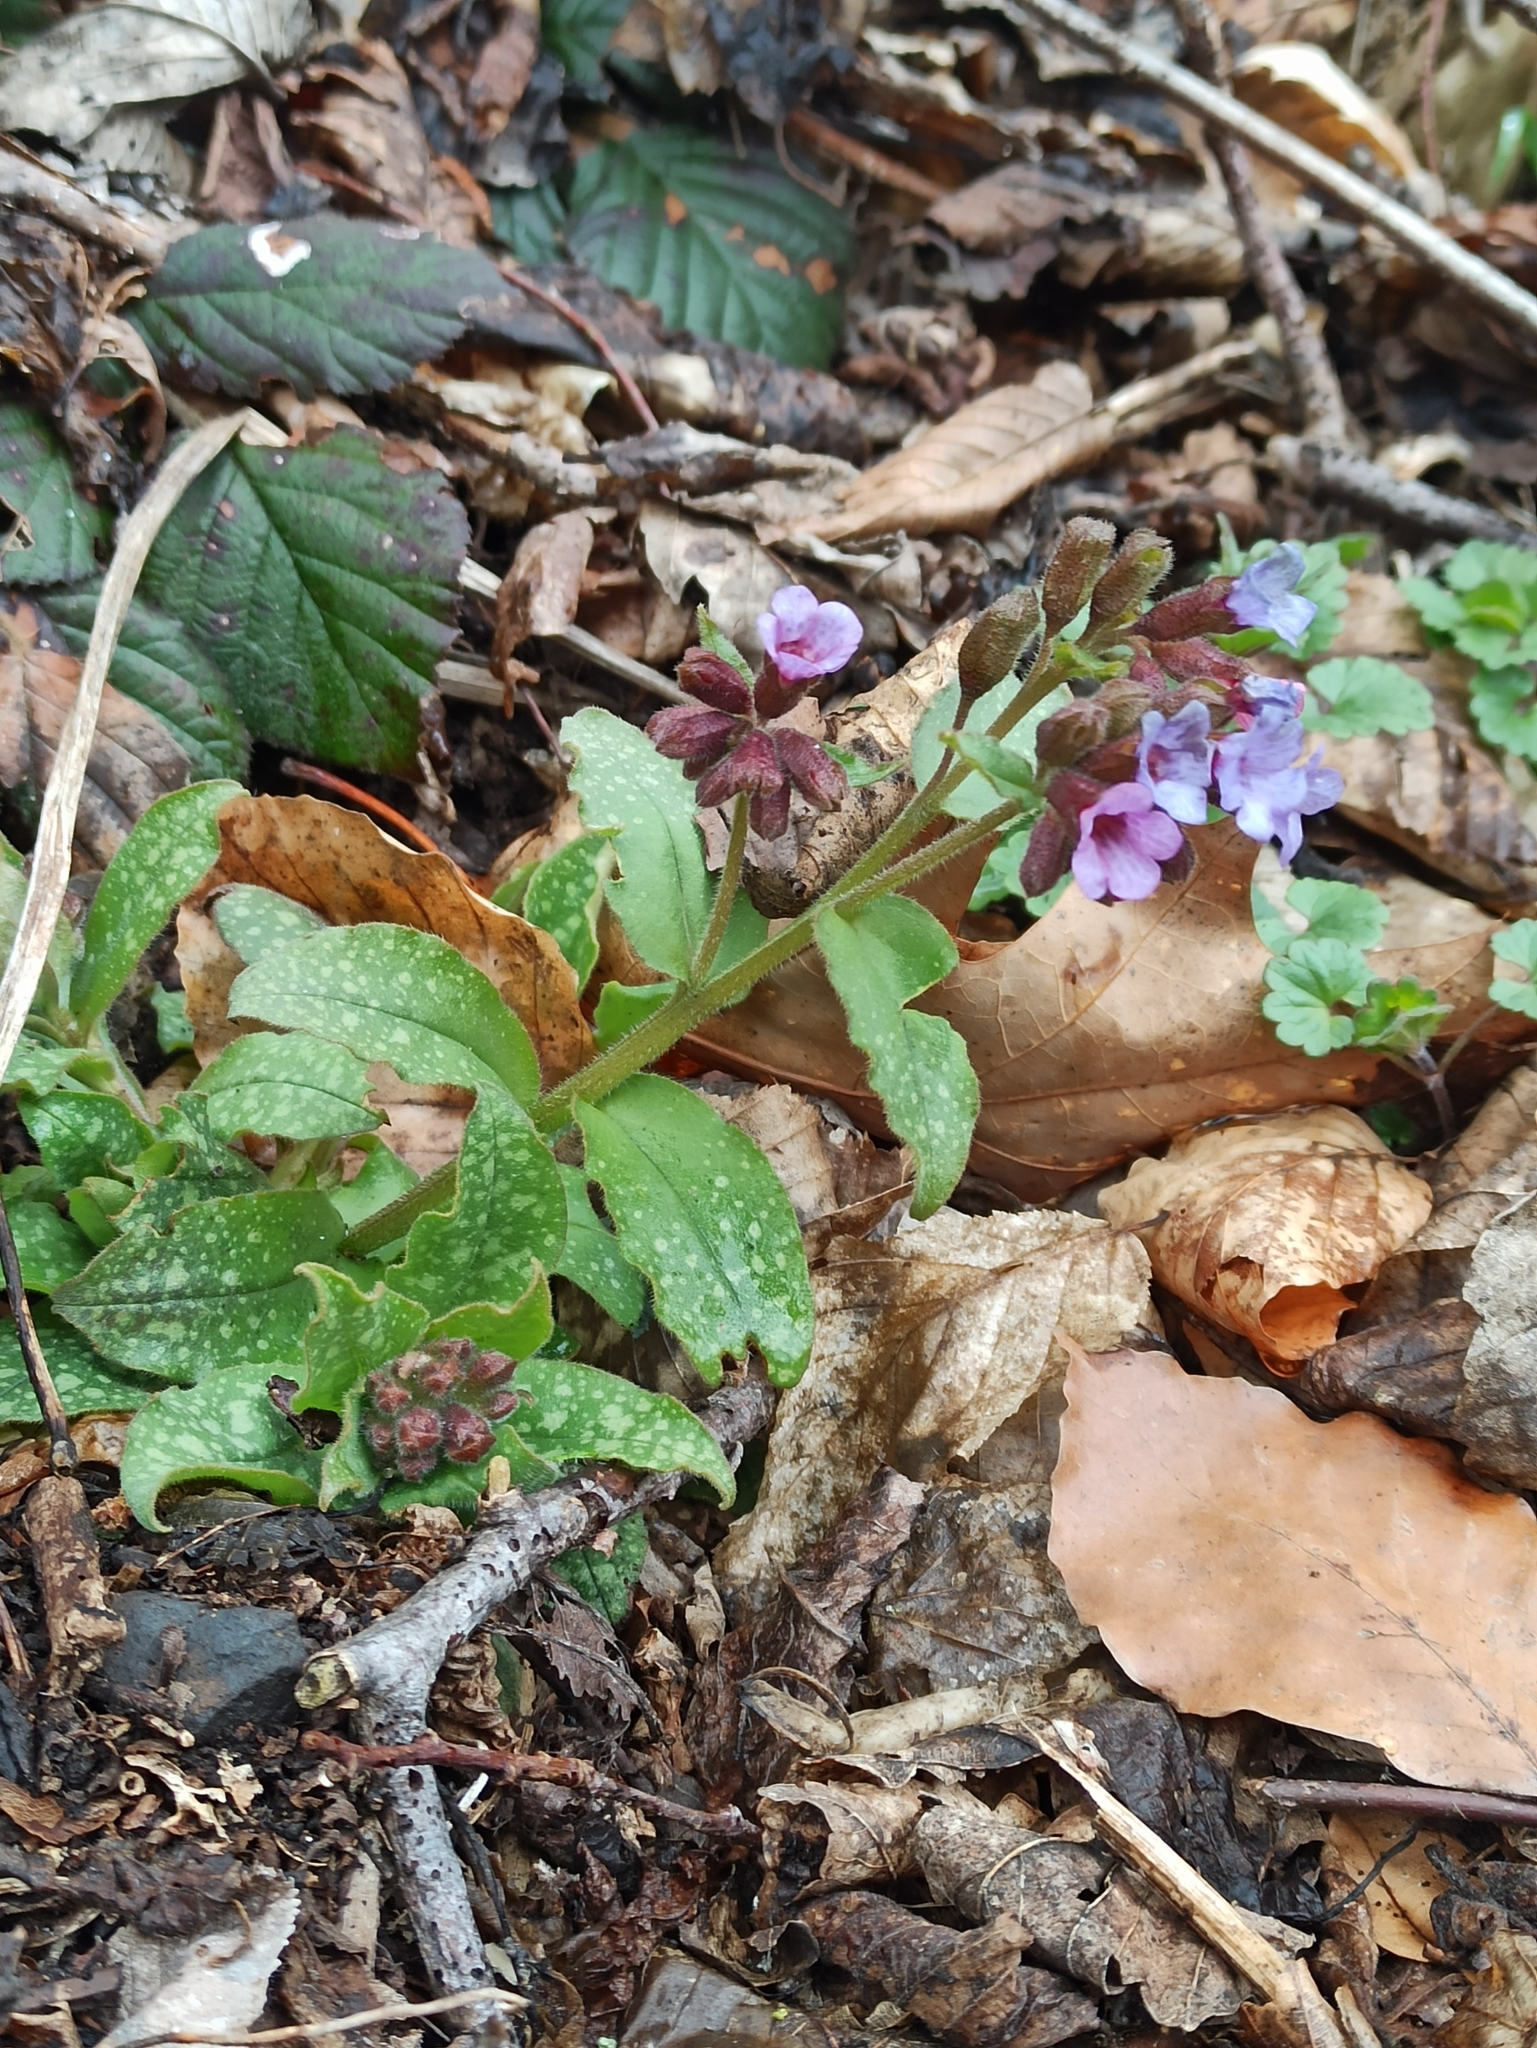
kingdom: Plantae
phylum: Tracheophyta
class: Magnoliopsida
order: Boraginales
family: Boraginaceae
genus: Pulmonaria
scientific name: Pulmonaria officinalis
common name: Lungwort
